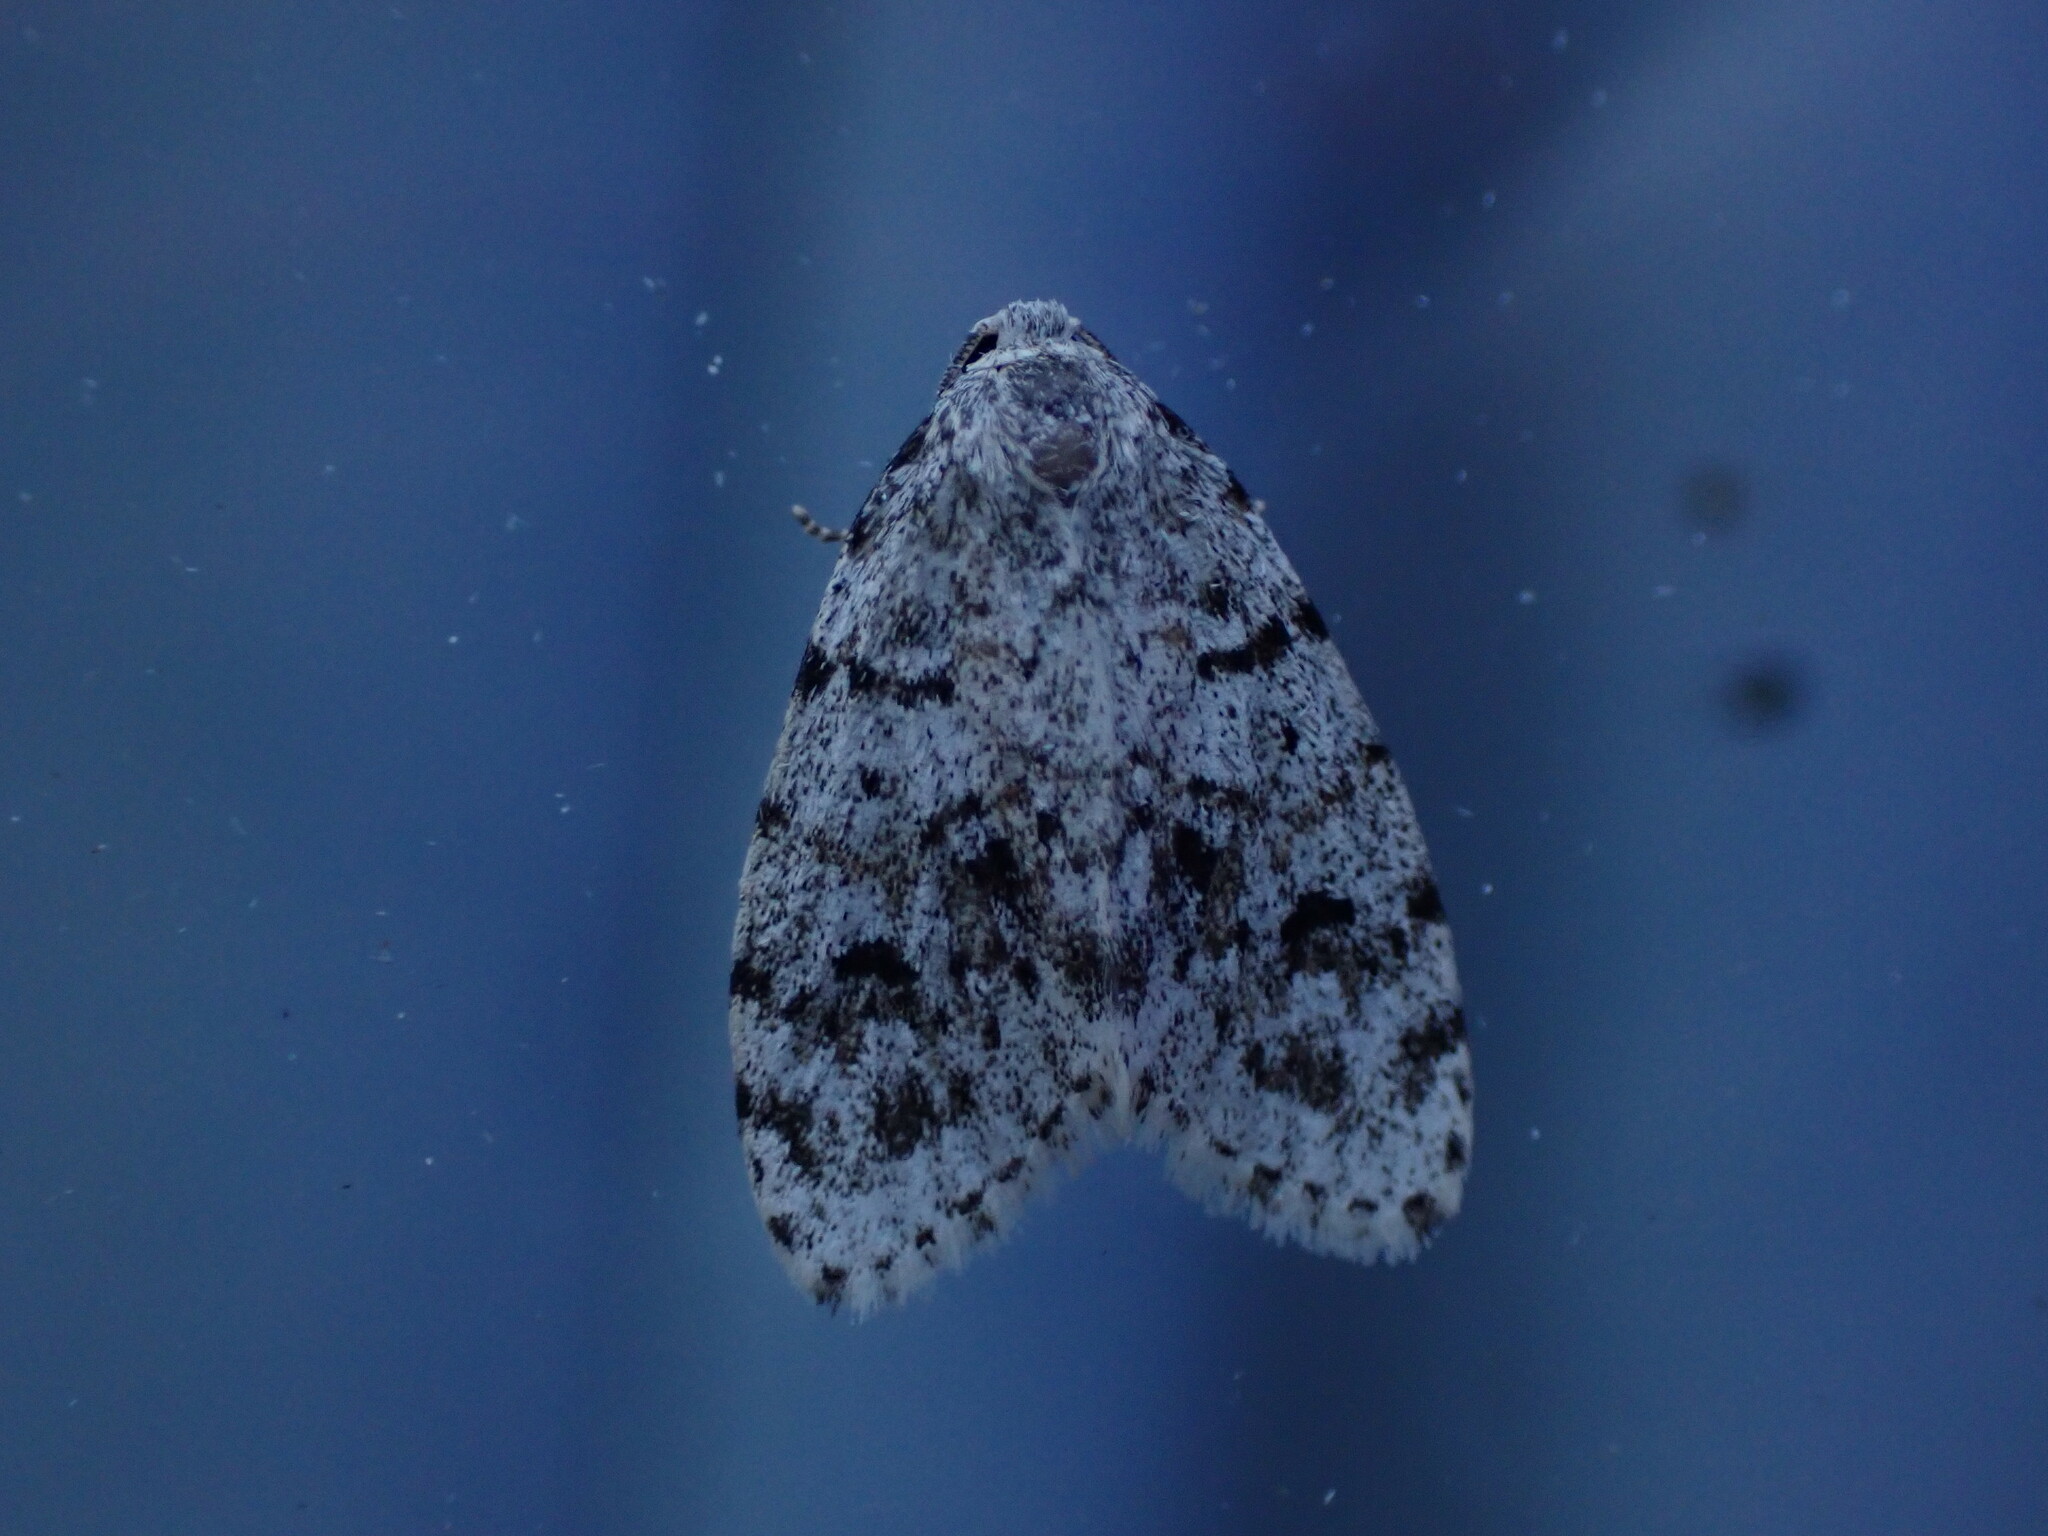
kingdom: Animalia
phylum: Arthropoda
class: Insecta
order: Lepidoptera
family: Erebidae
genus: Clemensia
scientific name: Clemensia umbrata
